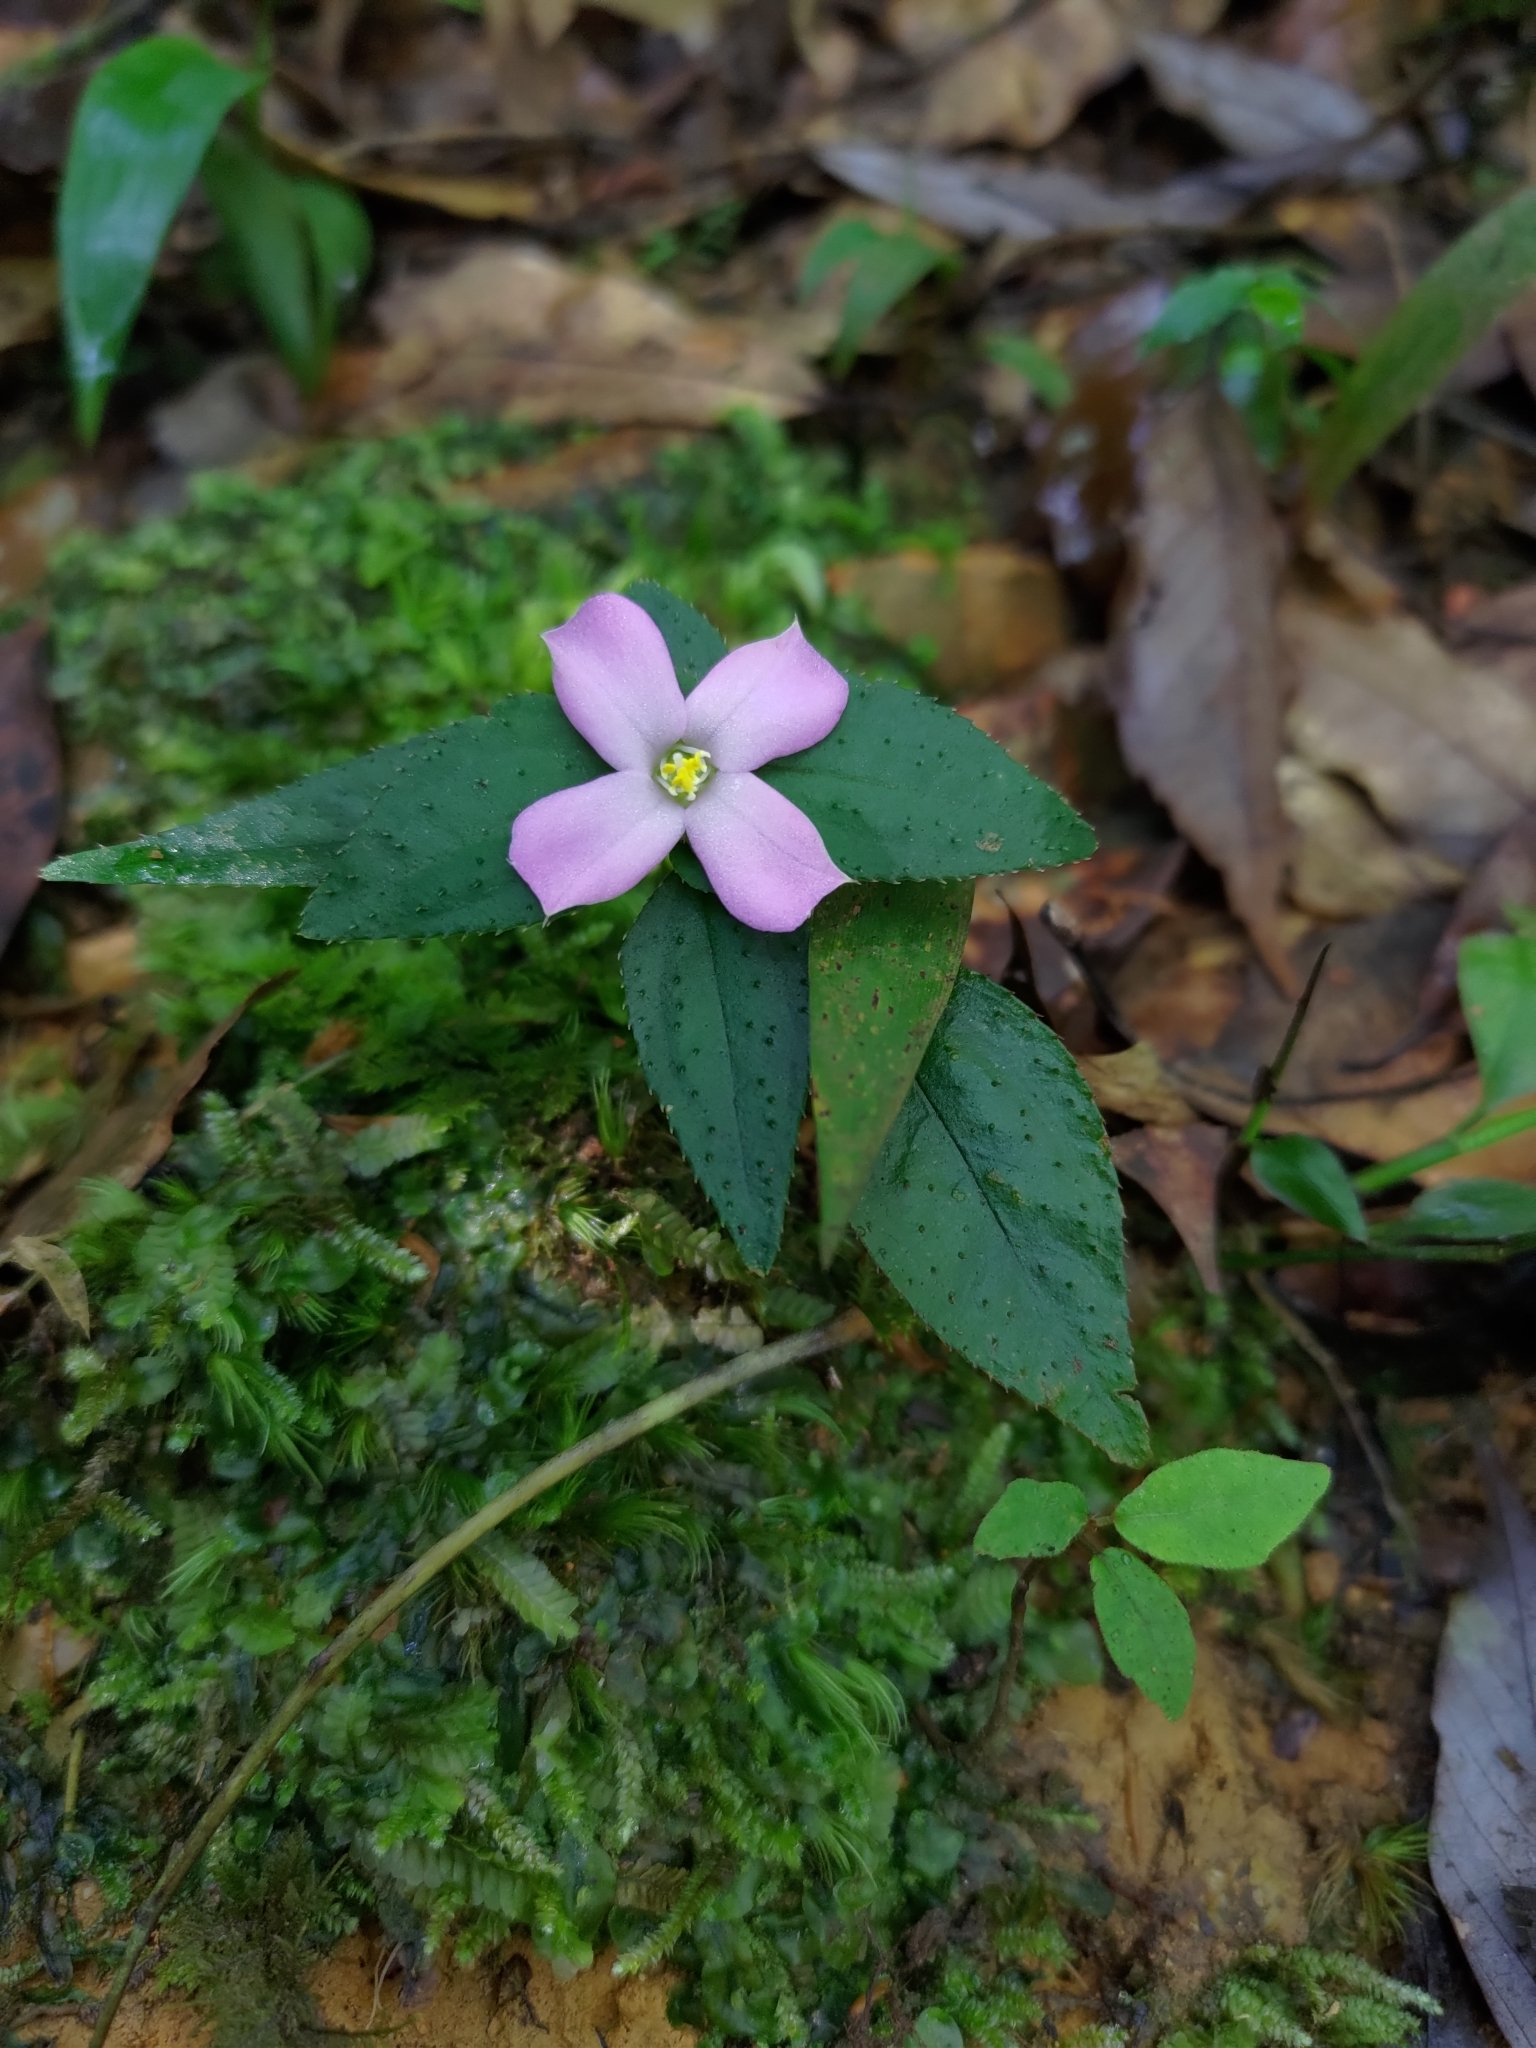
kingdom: Plantae
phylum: Tracheophyta
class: Magnoliopsida
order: Myrtales
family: Melastomataceae
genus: Sarcopyramis
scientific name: Sarcopyramis bodinieri
